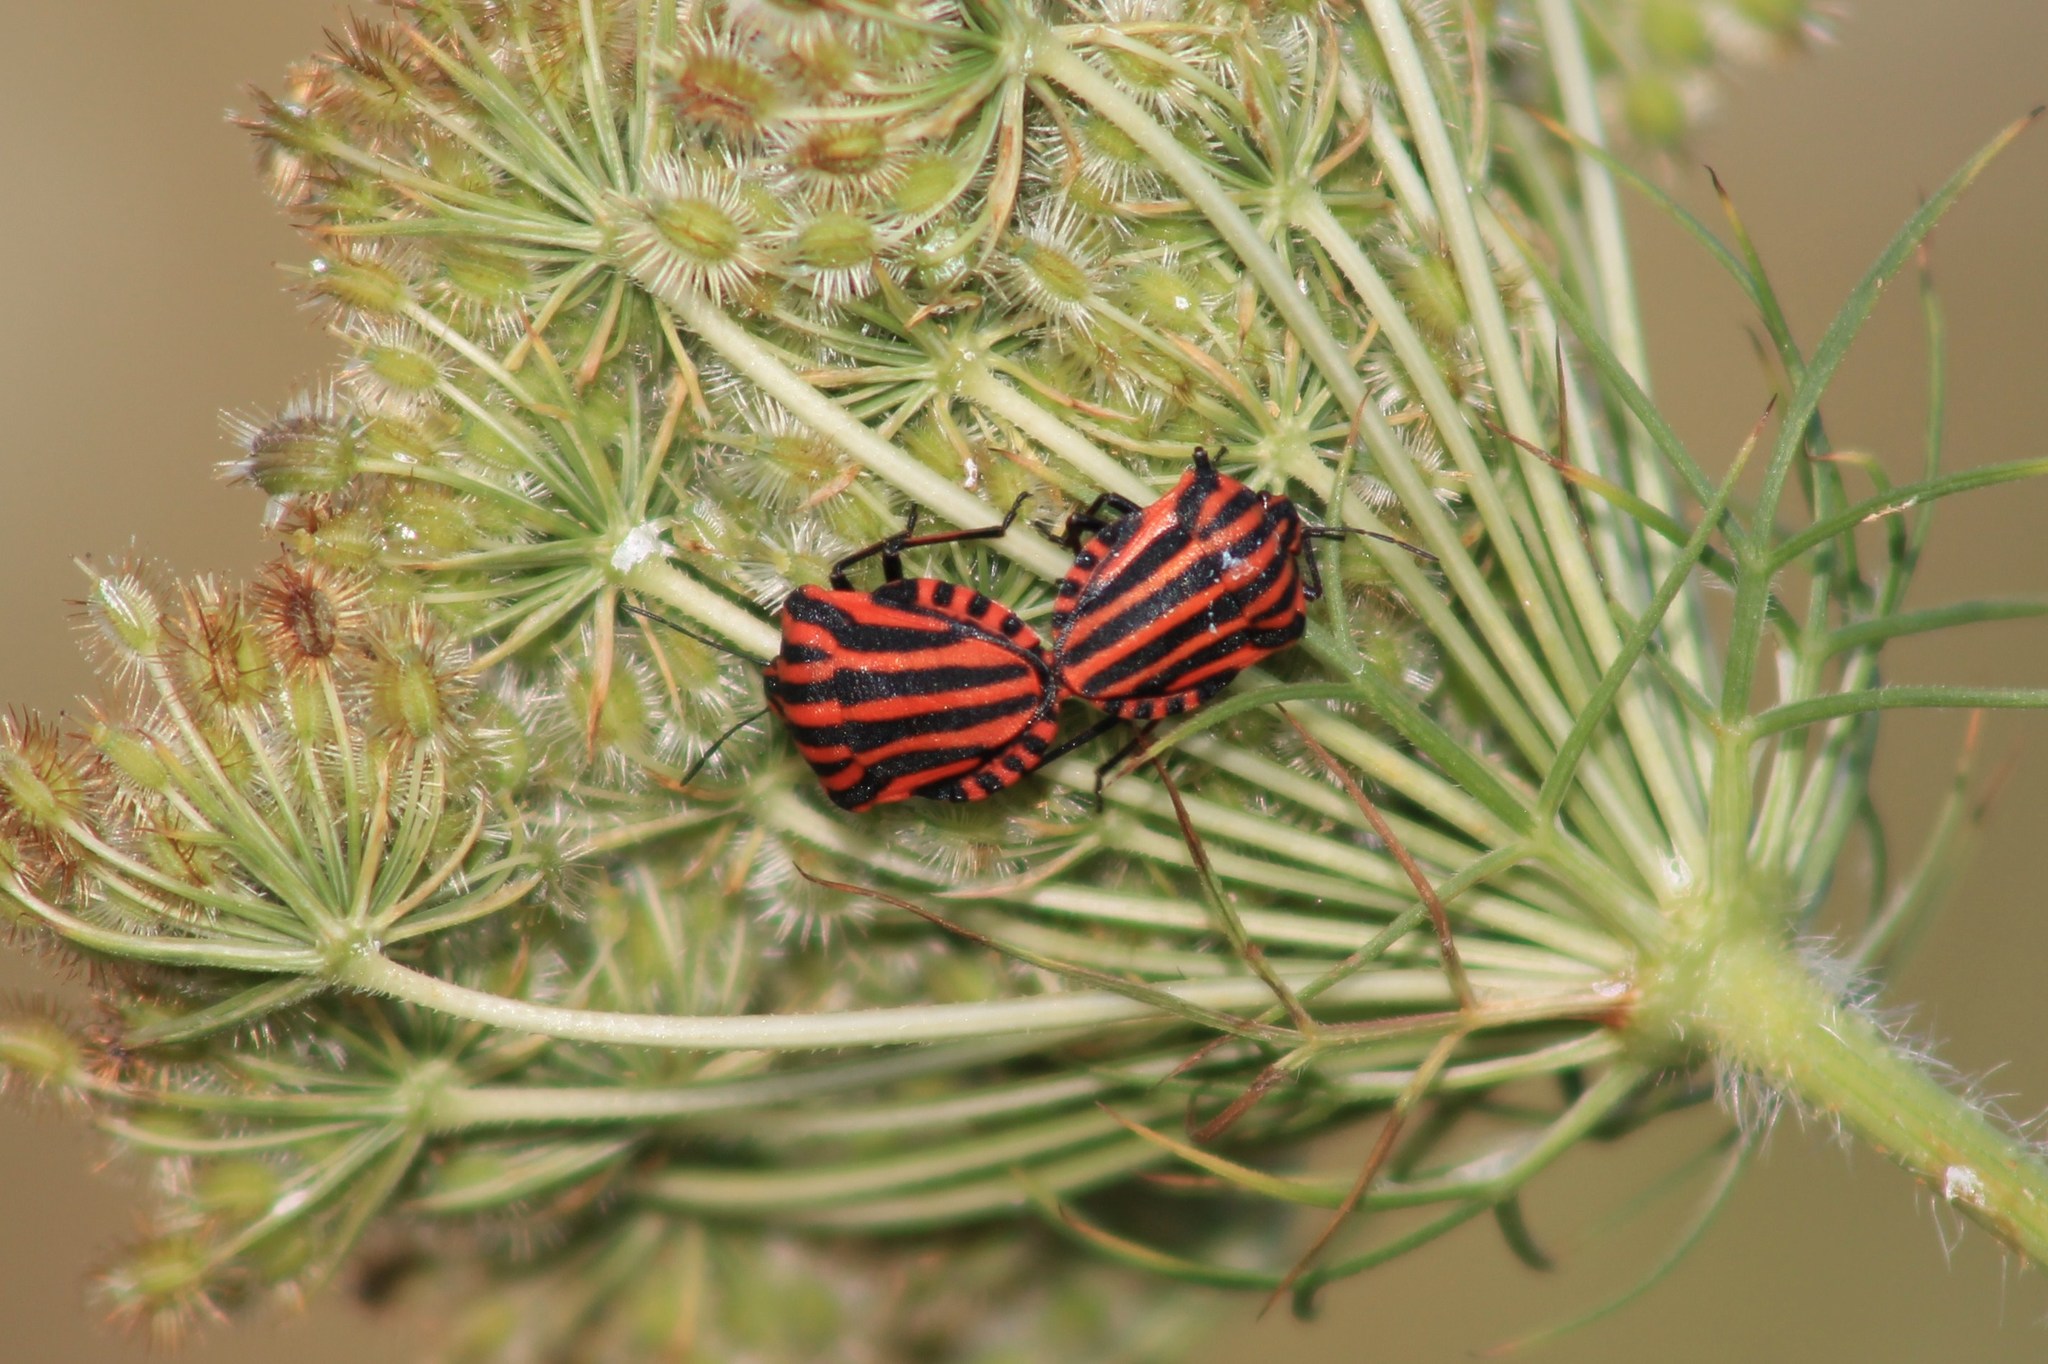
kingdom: Animalia
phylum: Arthropoda
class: Insecta
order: Hemiptera
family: Pentatomidae
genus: Graphosoma
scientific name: Graphosoma italicum
